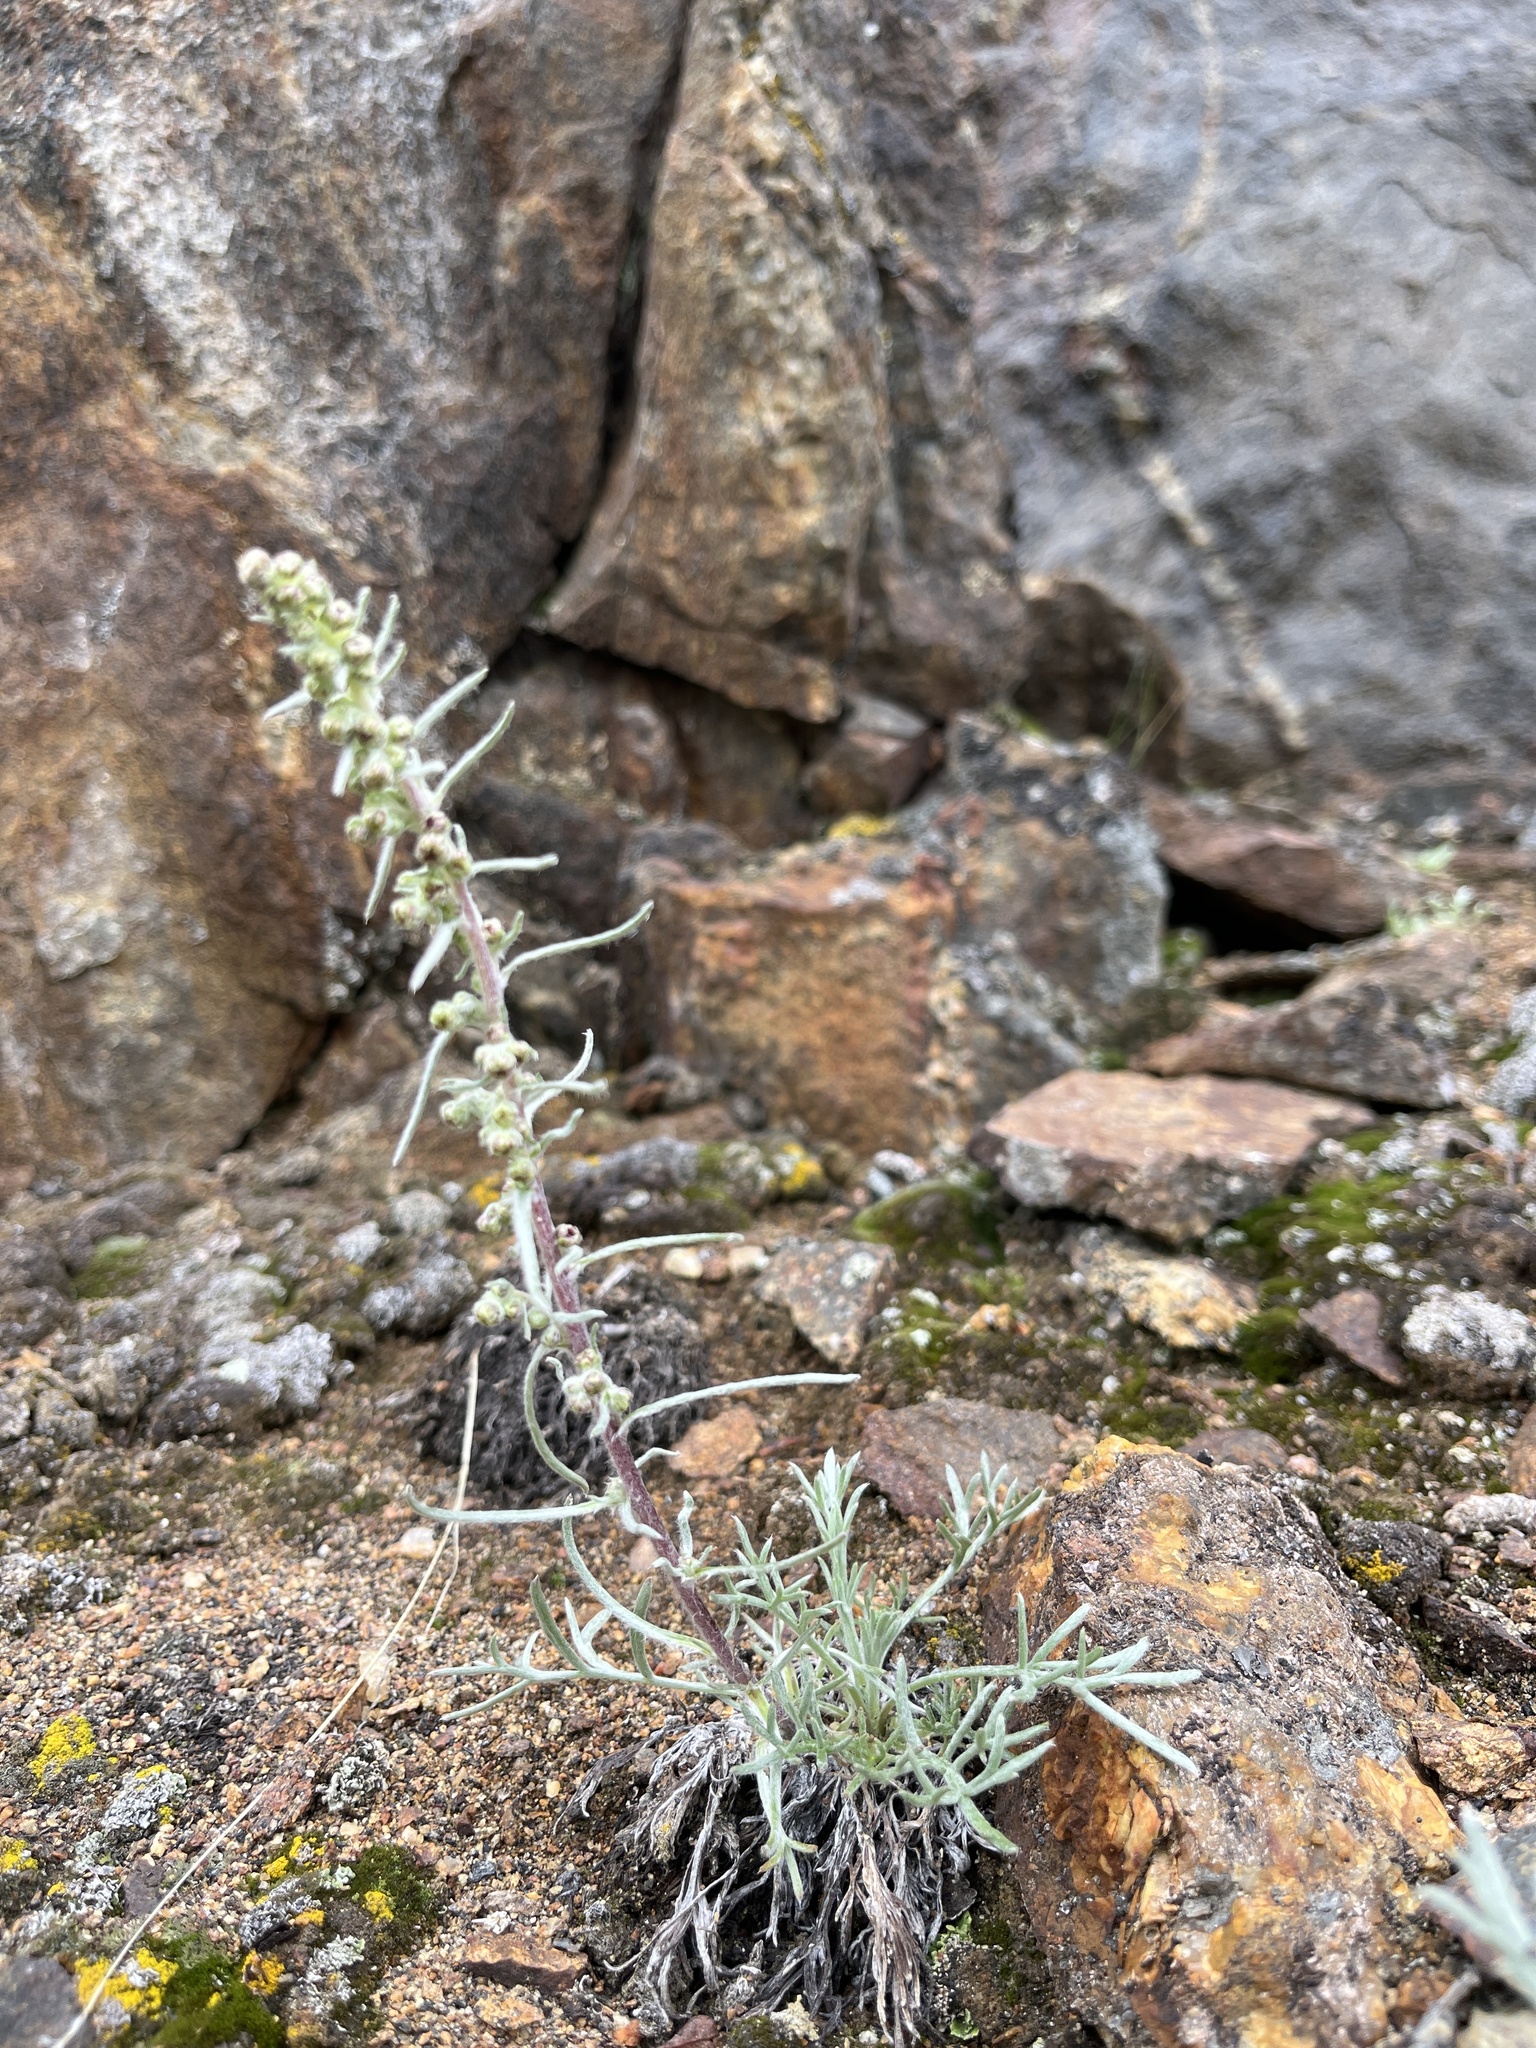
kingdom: Plantae
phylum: Tracheophyta
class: Magnoliopsida
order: Asterales
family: Asteraceae
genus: Artemisia
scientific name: Artemisia borealis
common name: Boreal sage
